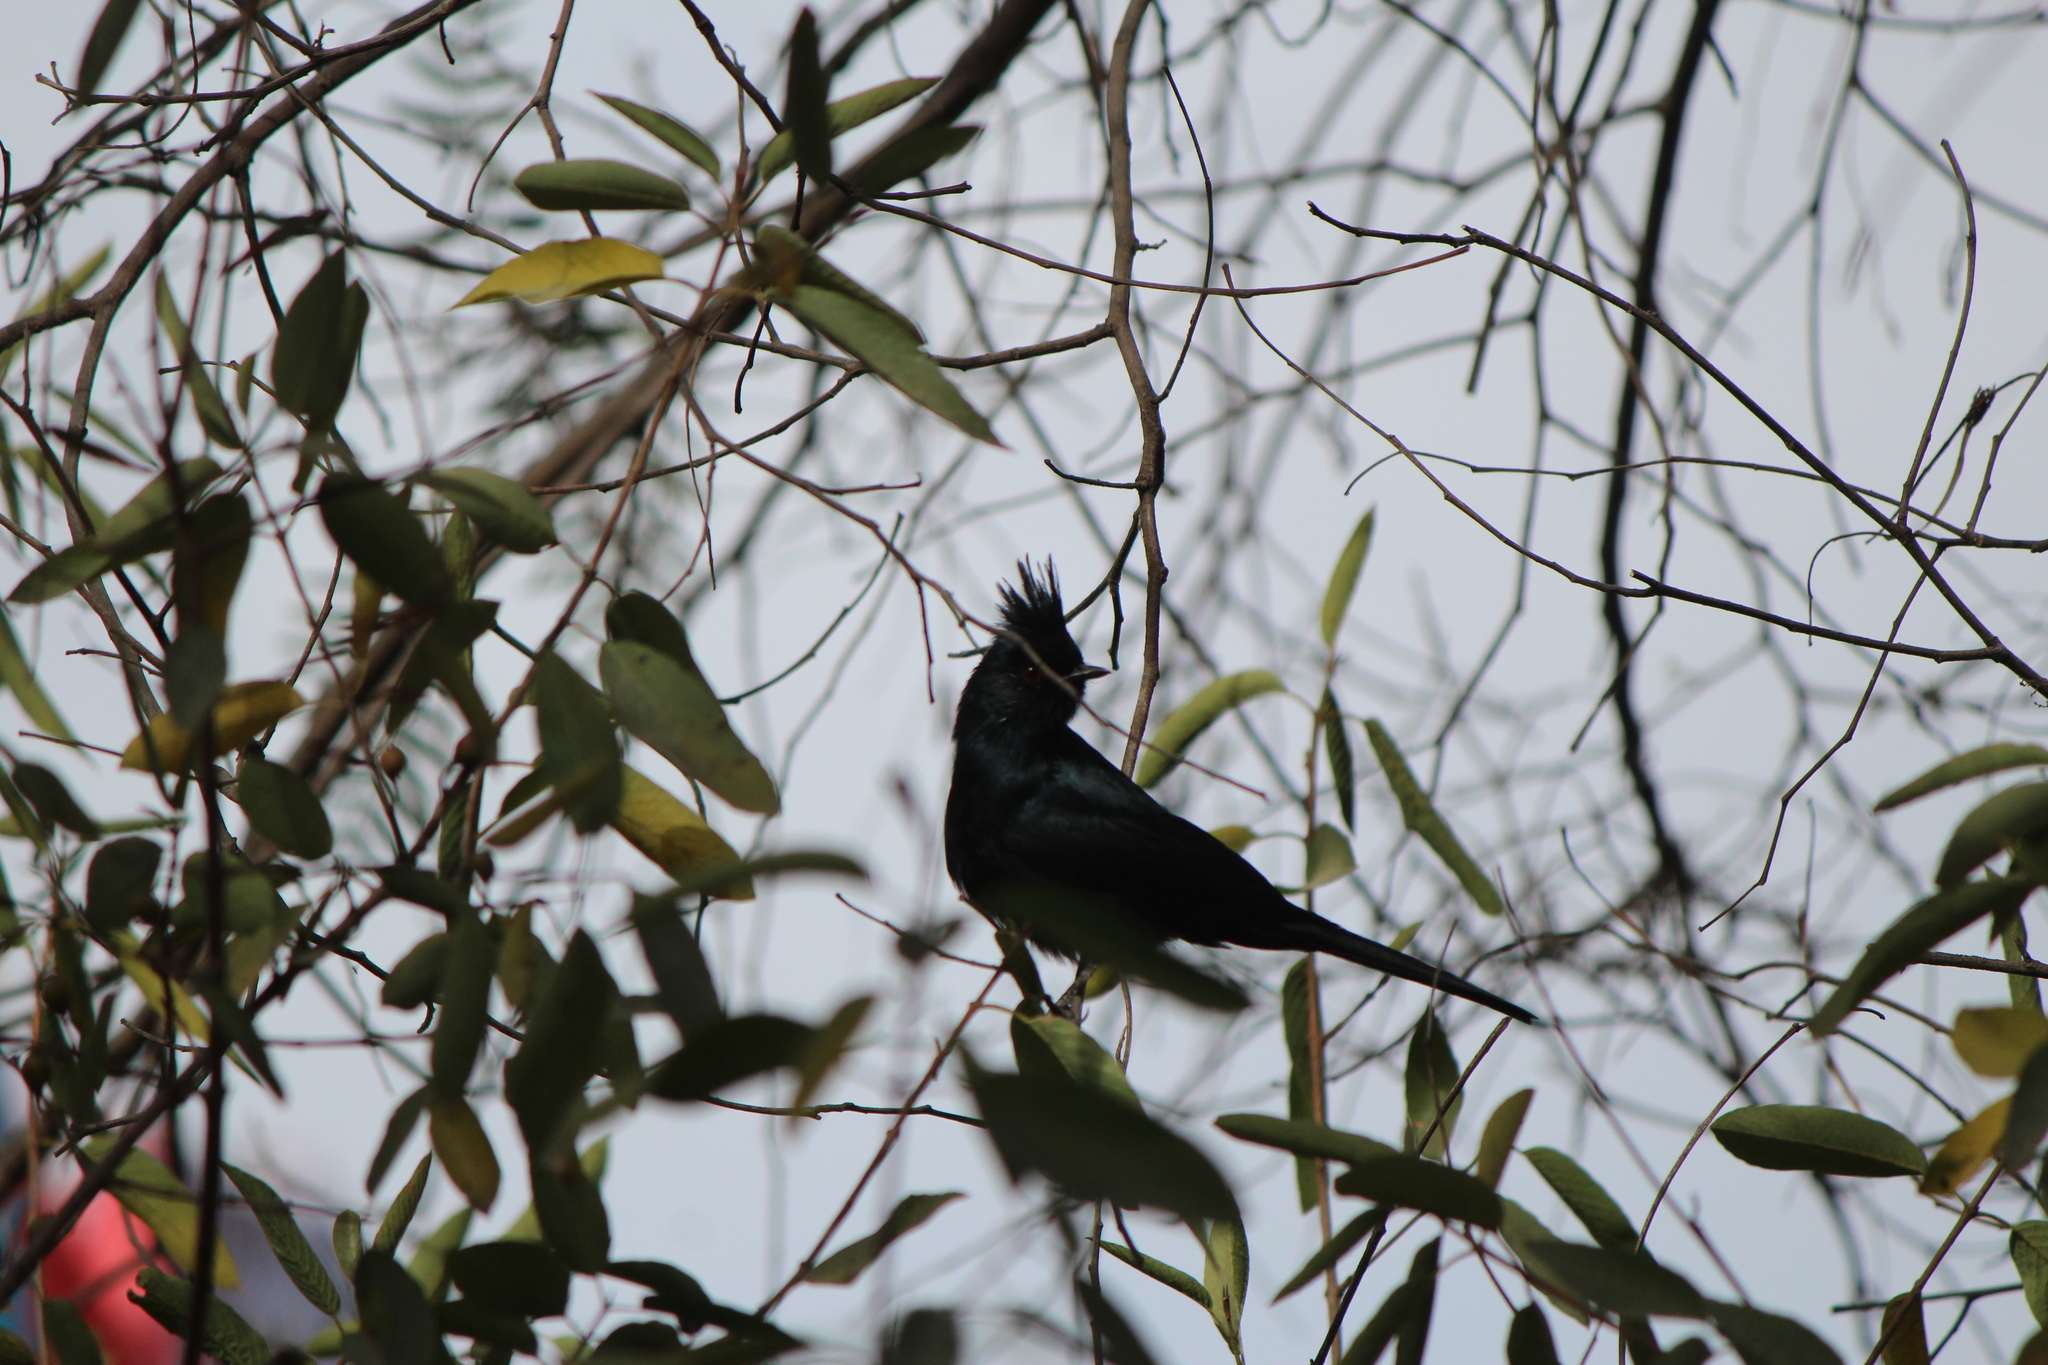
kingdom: Animalia
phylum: Chordata
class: Aves
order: Passeriformes
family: Ptilogonatidae
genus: Phainopepla
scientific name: Phainopepla nitens
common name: Phainopepla
